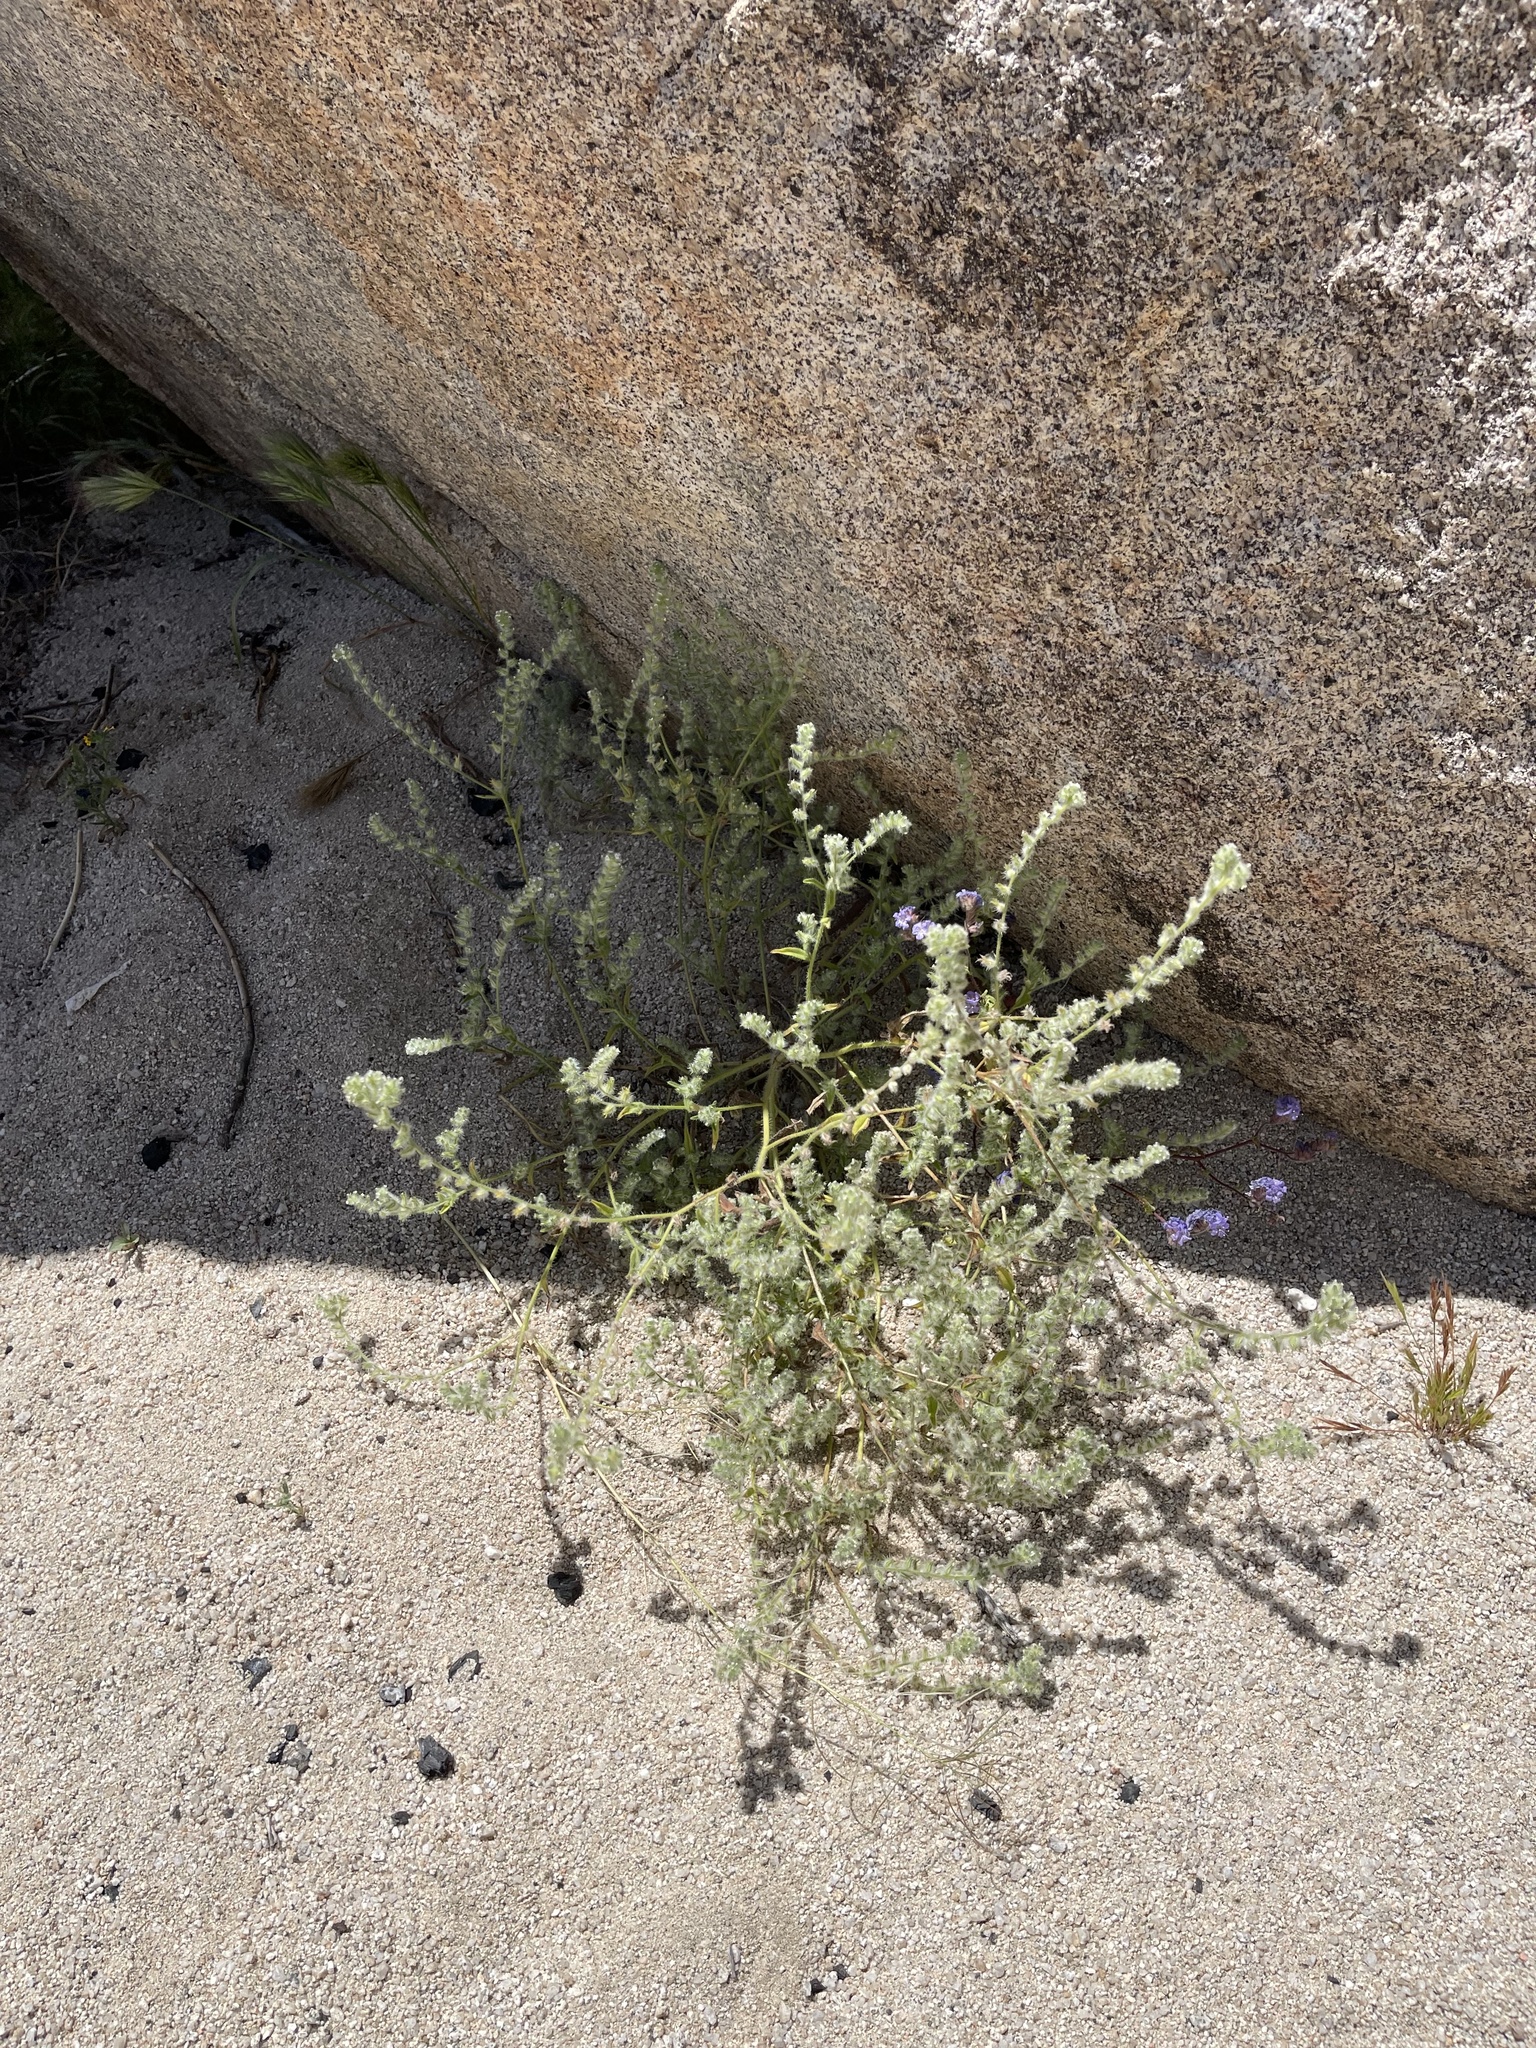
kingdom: Plantae
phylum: Tracheophyta
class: Magnoliopsida
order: Boraginales
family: Boraginaceae
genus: Cryptantha
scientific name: Cryptantha barbigera
